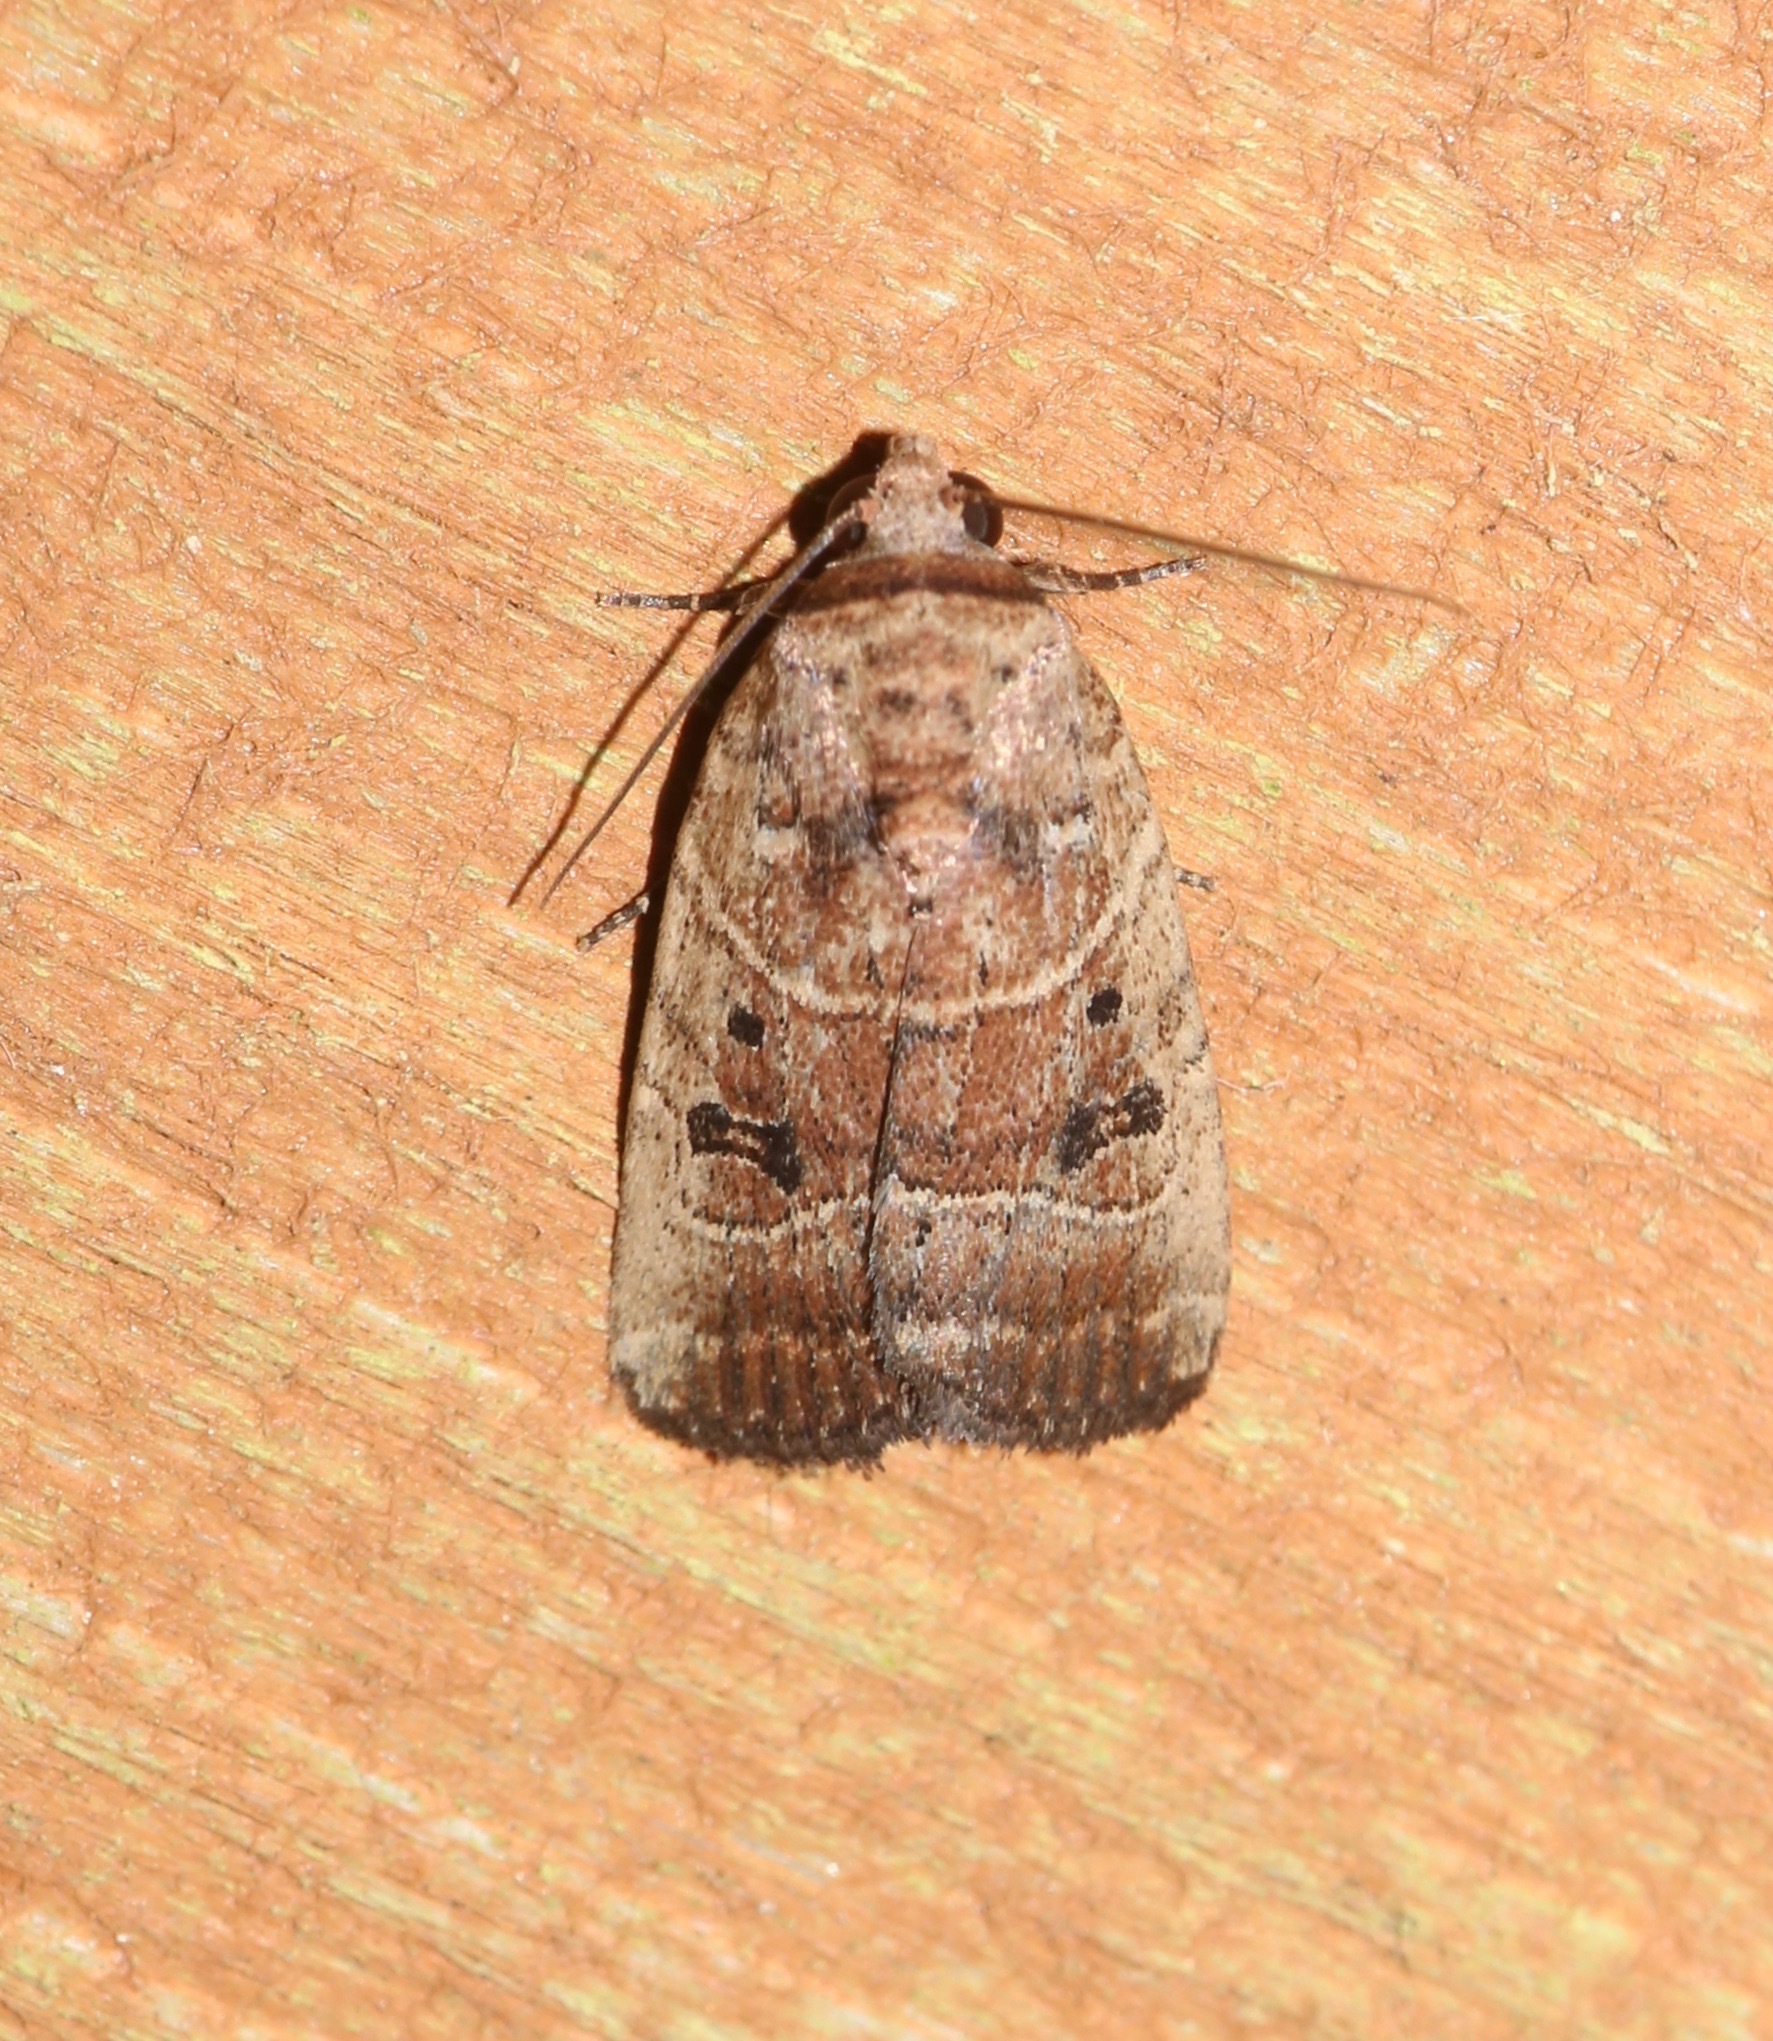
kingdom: Animalia
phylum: Arthropoda
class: Insecta
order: Lepidoptera
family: Noctuidae
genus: Elaphria
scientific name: Elaphria fuscimacula
